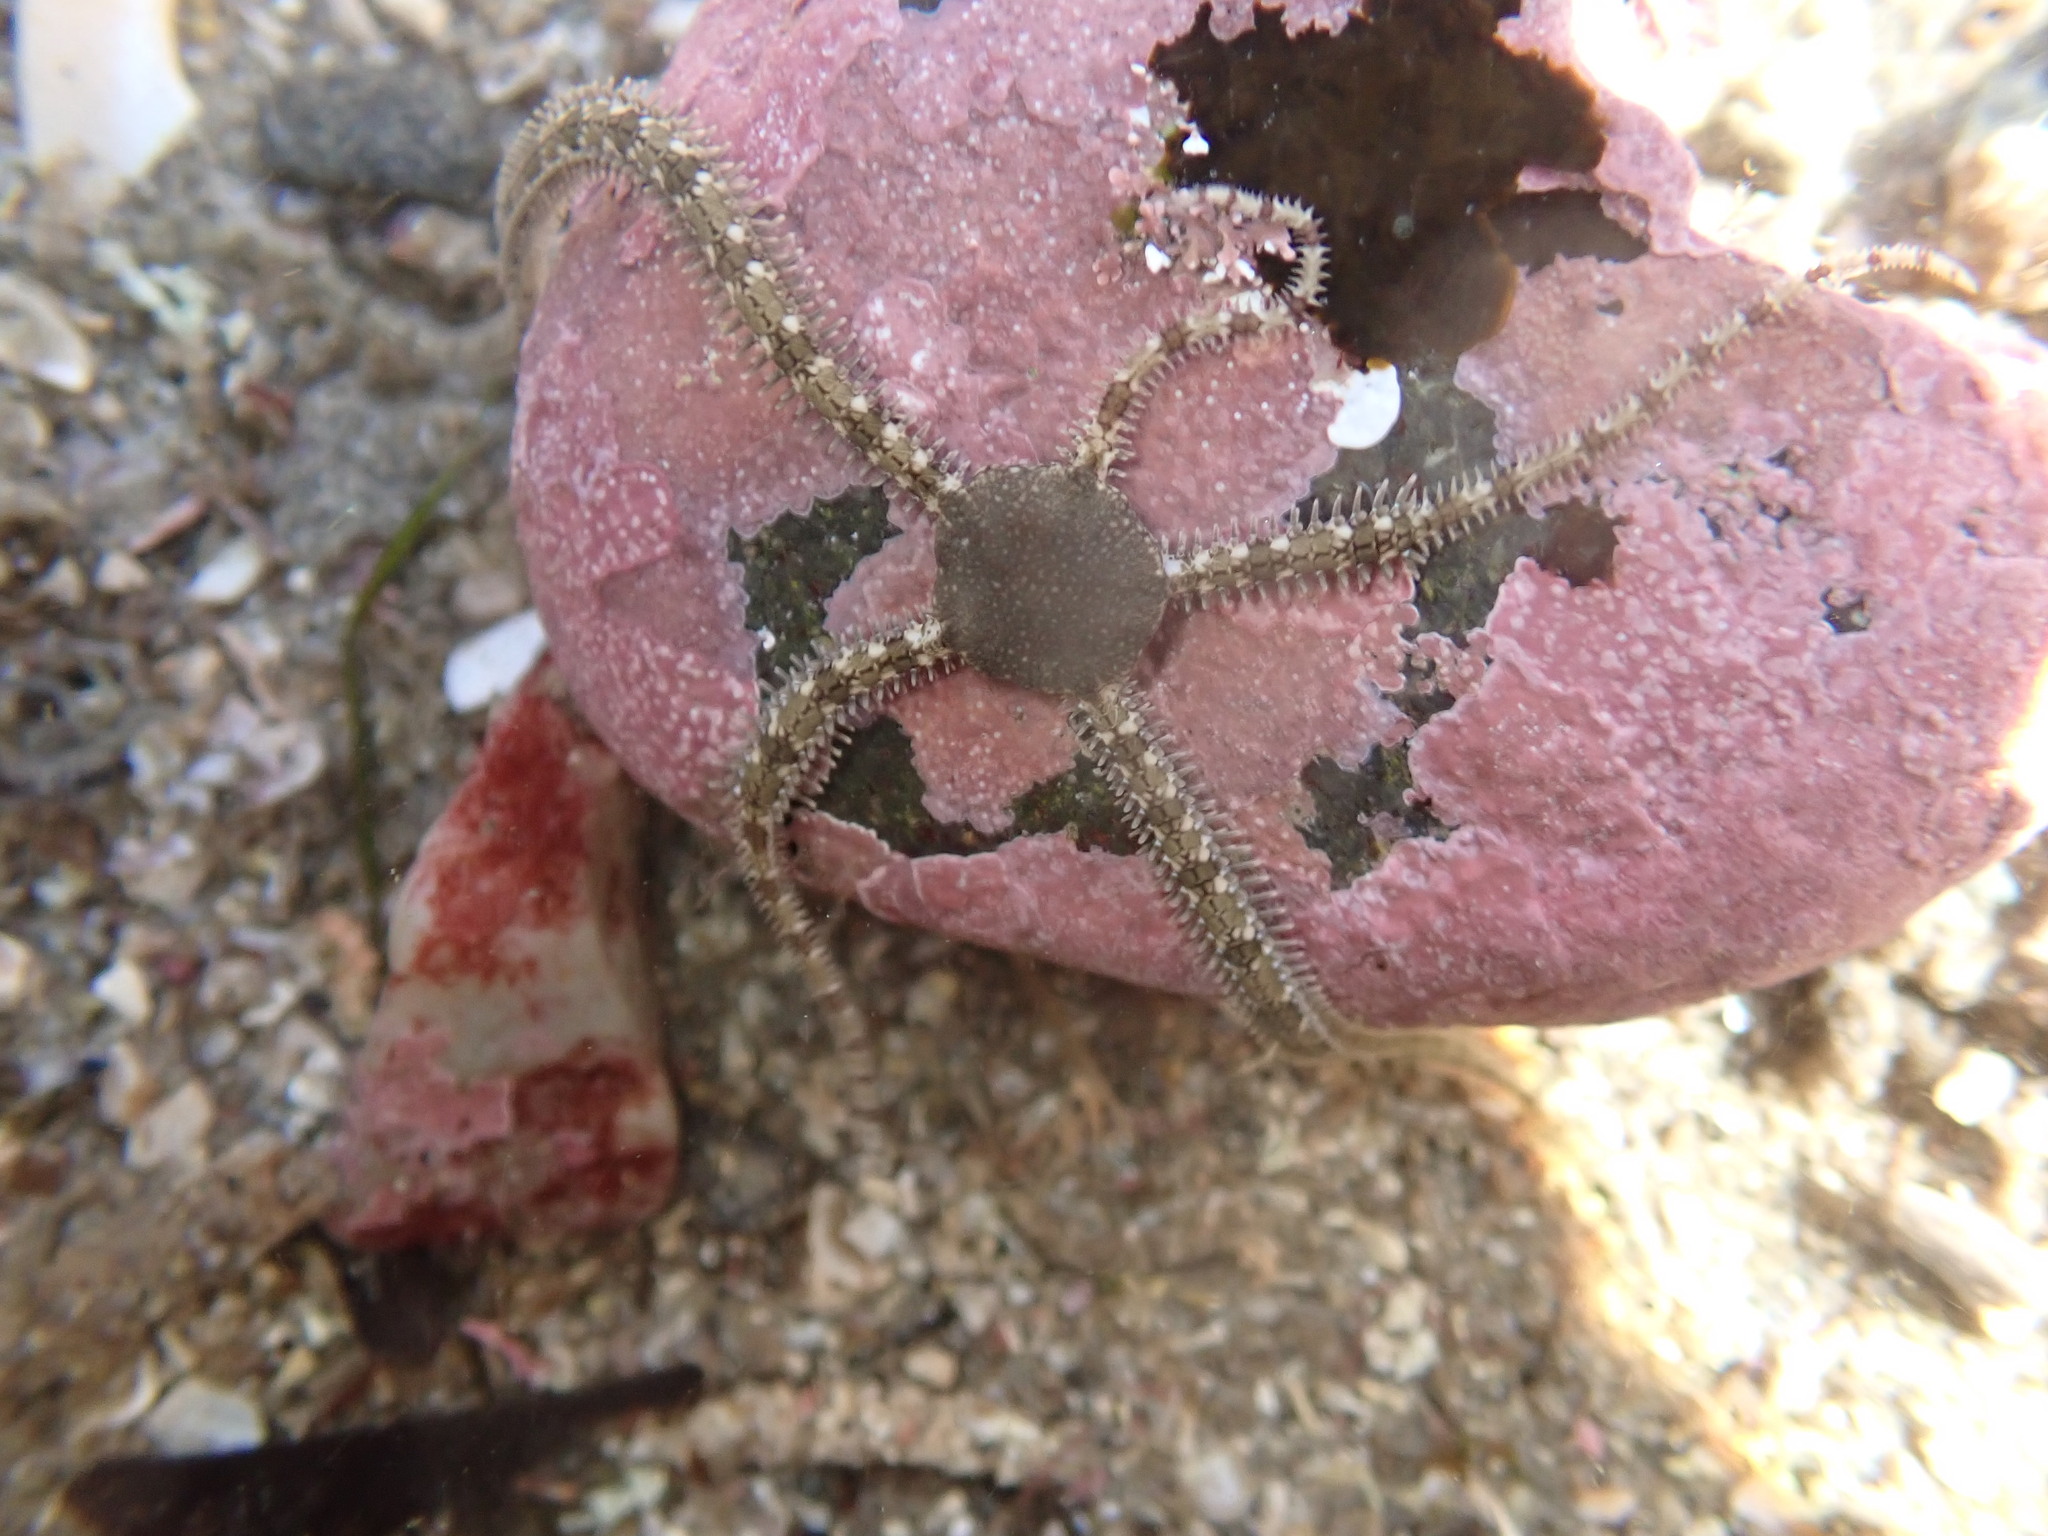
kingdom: Animalia
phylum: Echinodermata
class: Ophiuroidea
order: Amphilepidida
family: Ophionereididae
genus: Ophionereis
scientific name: Ophionereis annulata
